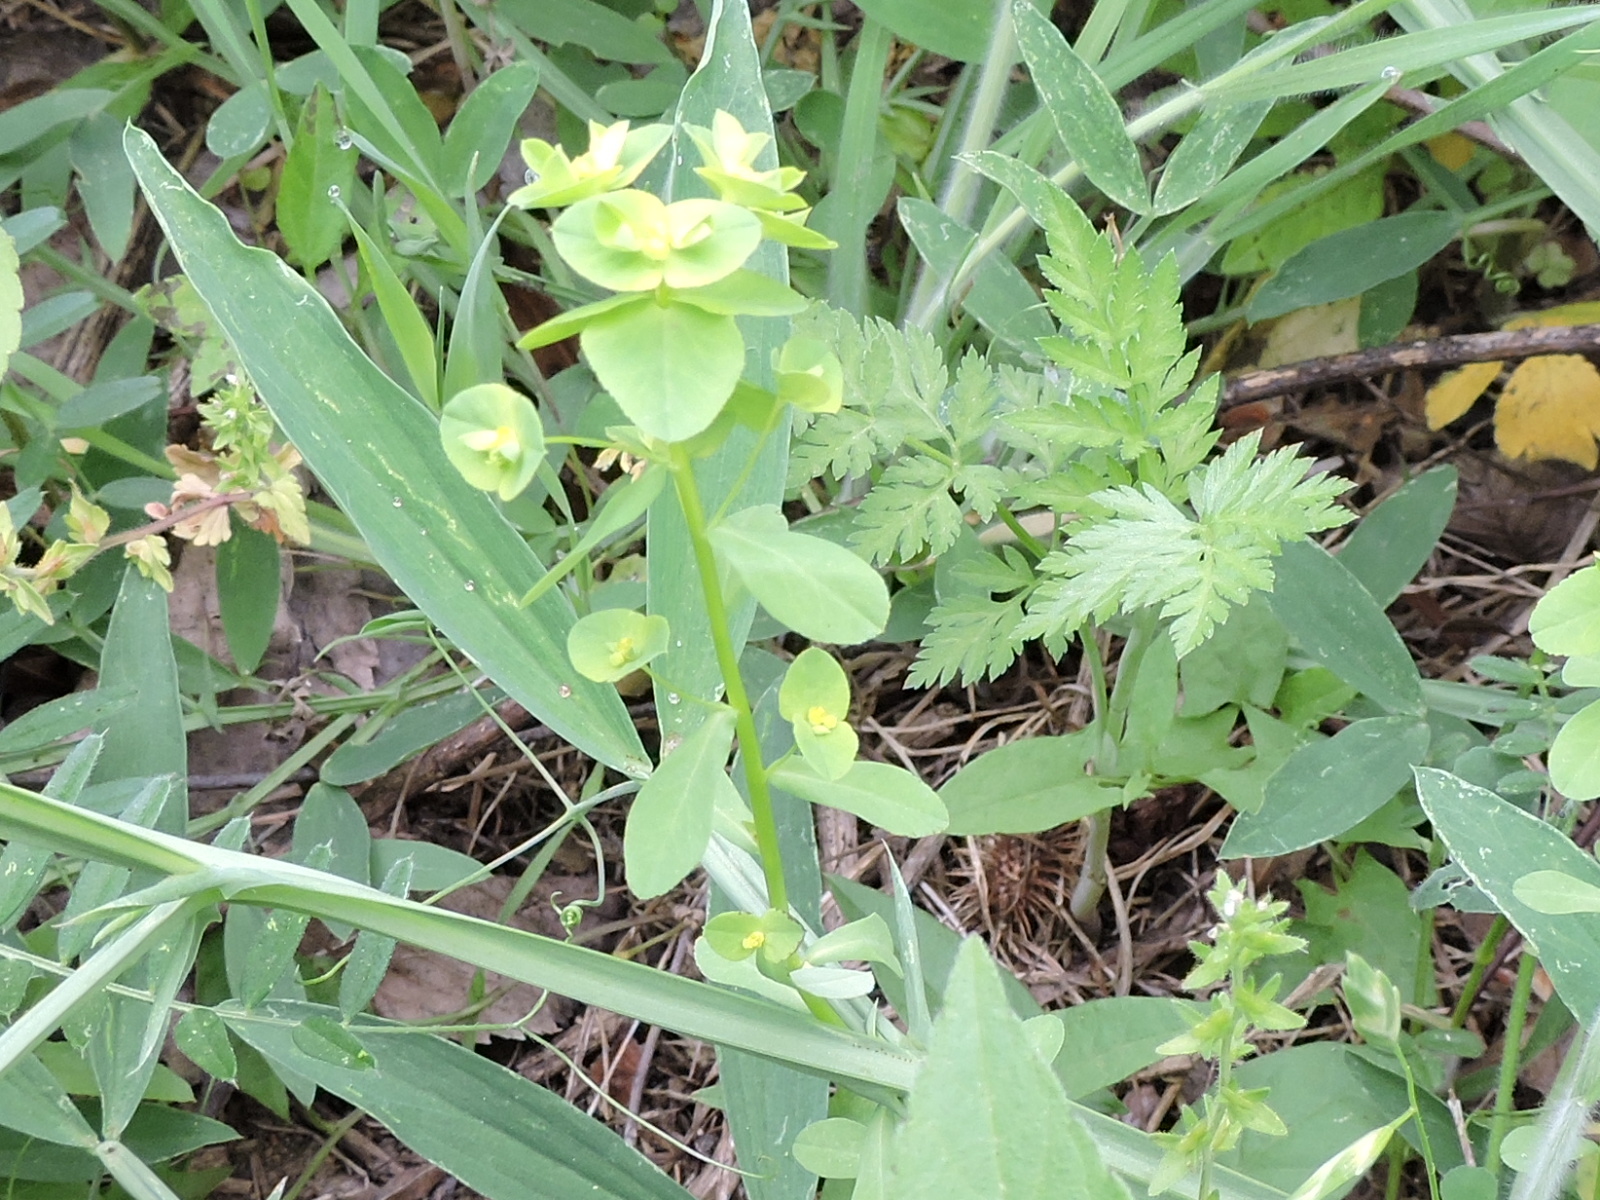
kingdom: Plantae
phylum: Tracheophyta
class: Magnoliopsida
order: Malpighiales
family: Euphorbiaceae
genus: Euphorbia
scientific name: Euphorbia spathulata
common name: Blunt spurge
